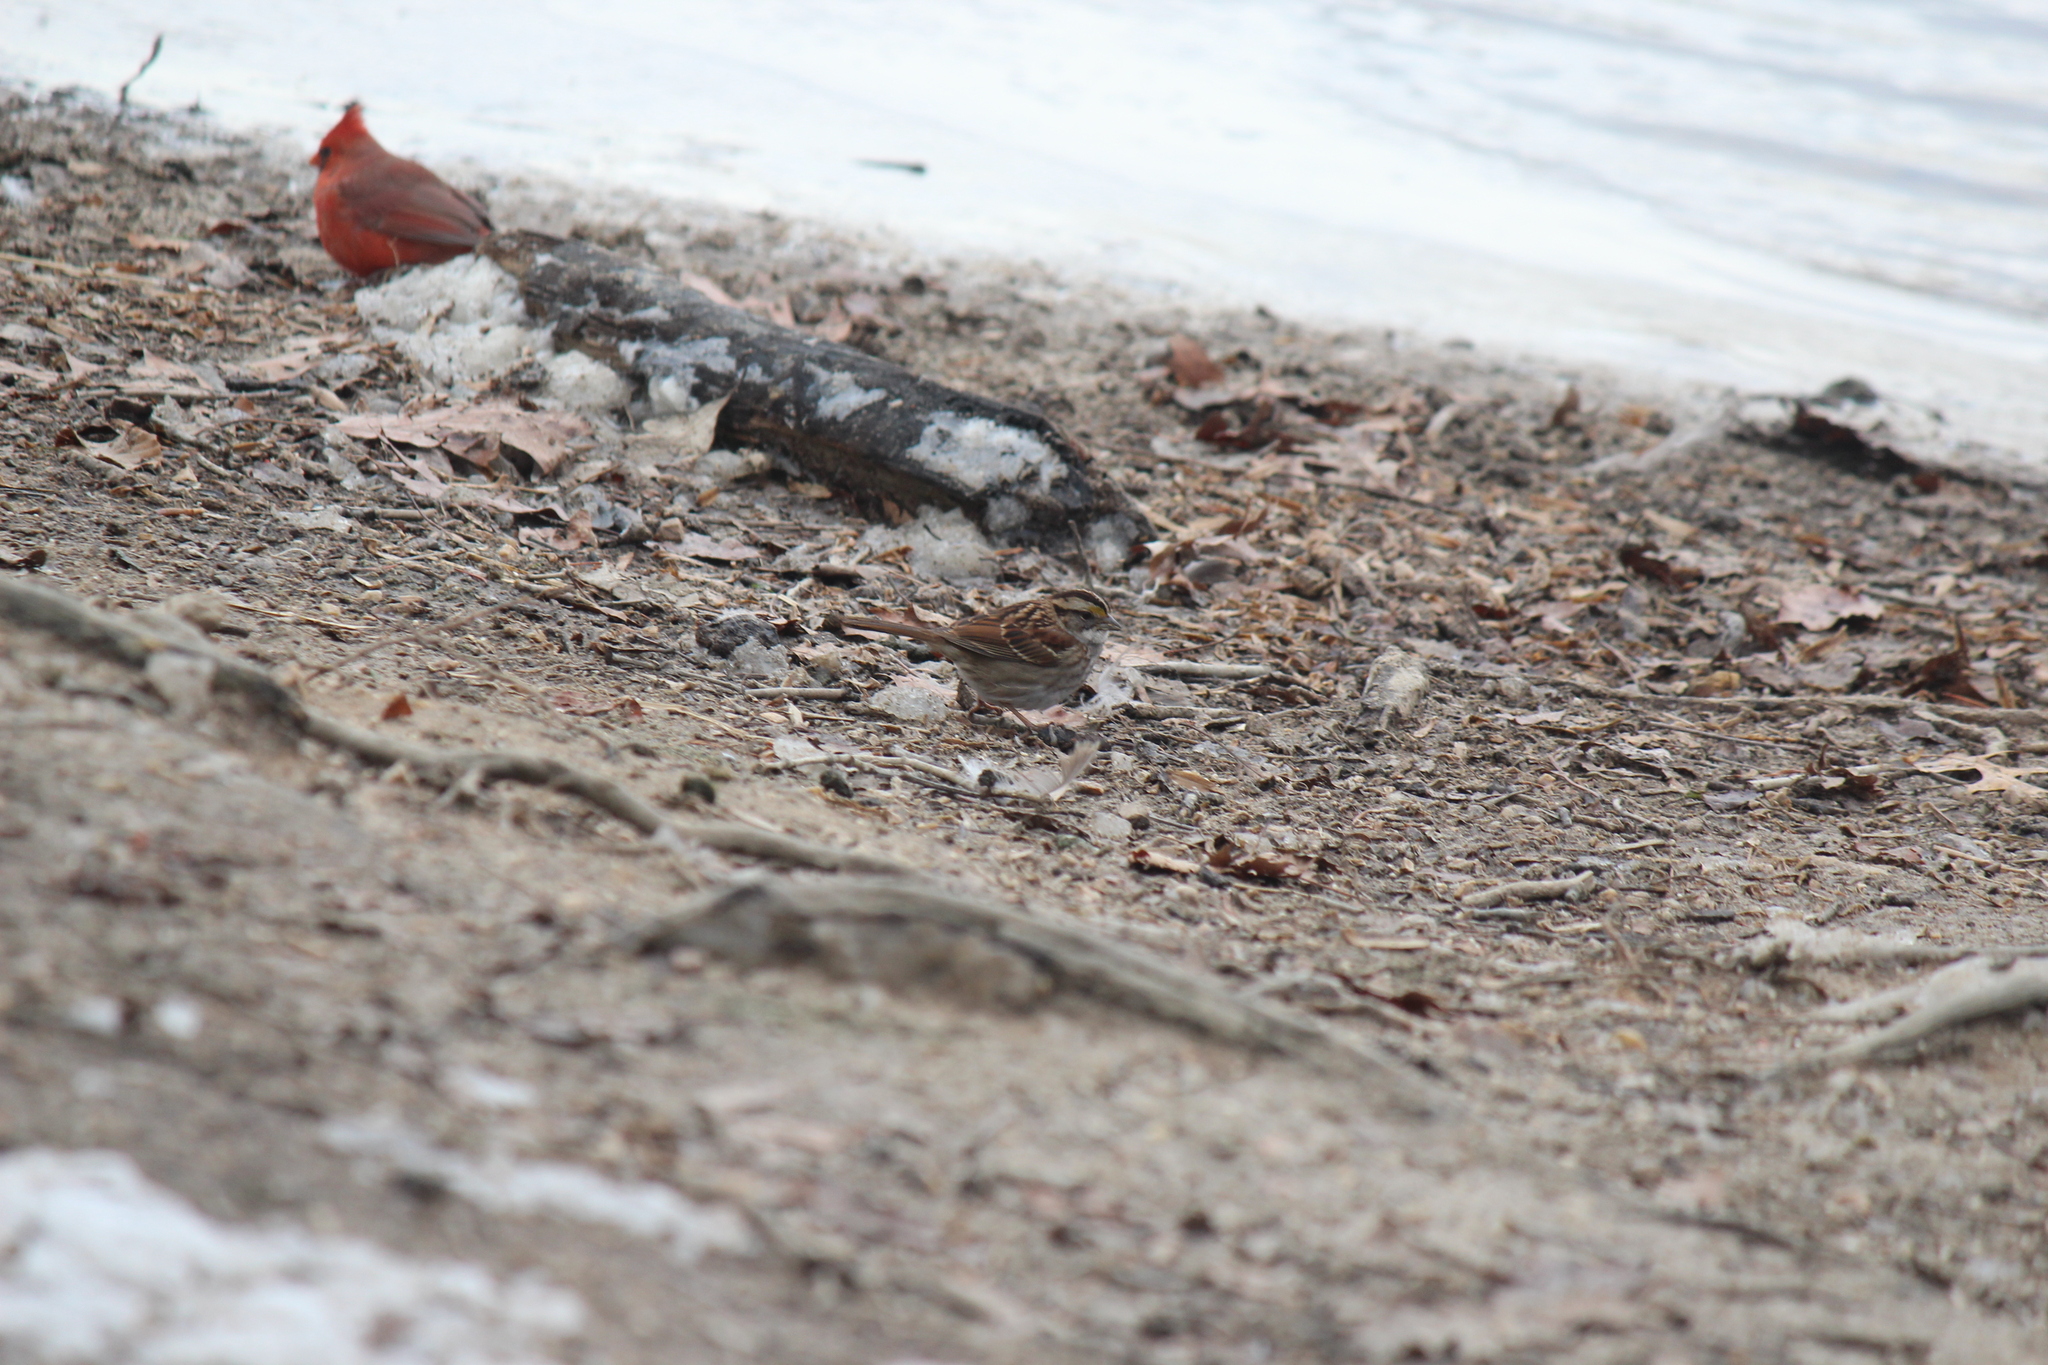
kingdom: Animalia
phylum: Chordata
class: Aves
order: Passeriformes
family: Passerellidae
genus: Zonotrichia
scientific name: Zonotrichia albicollis
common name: White-throated sparrow
